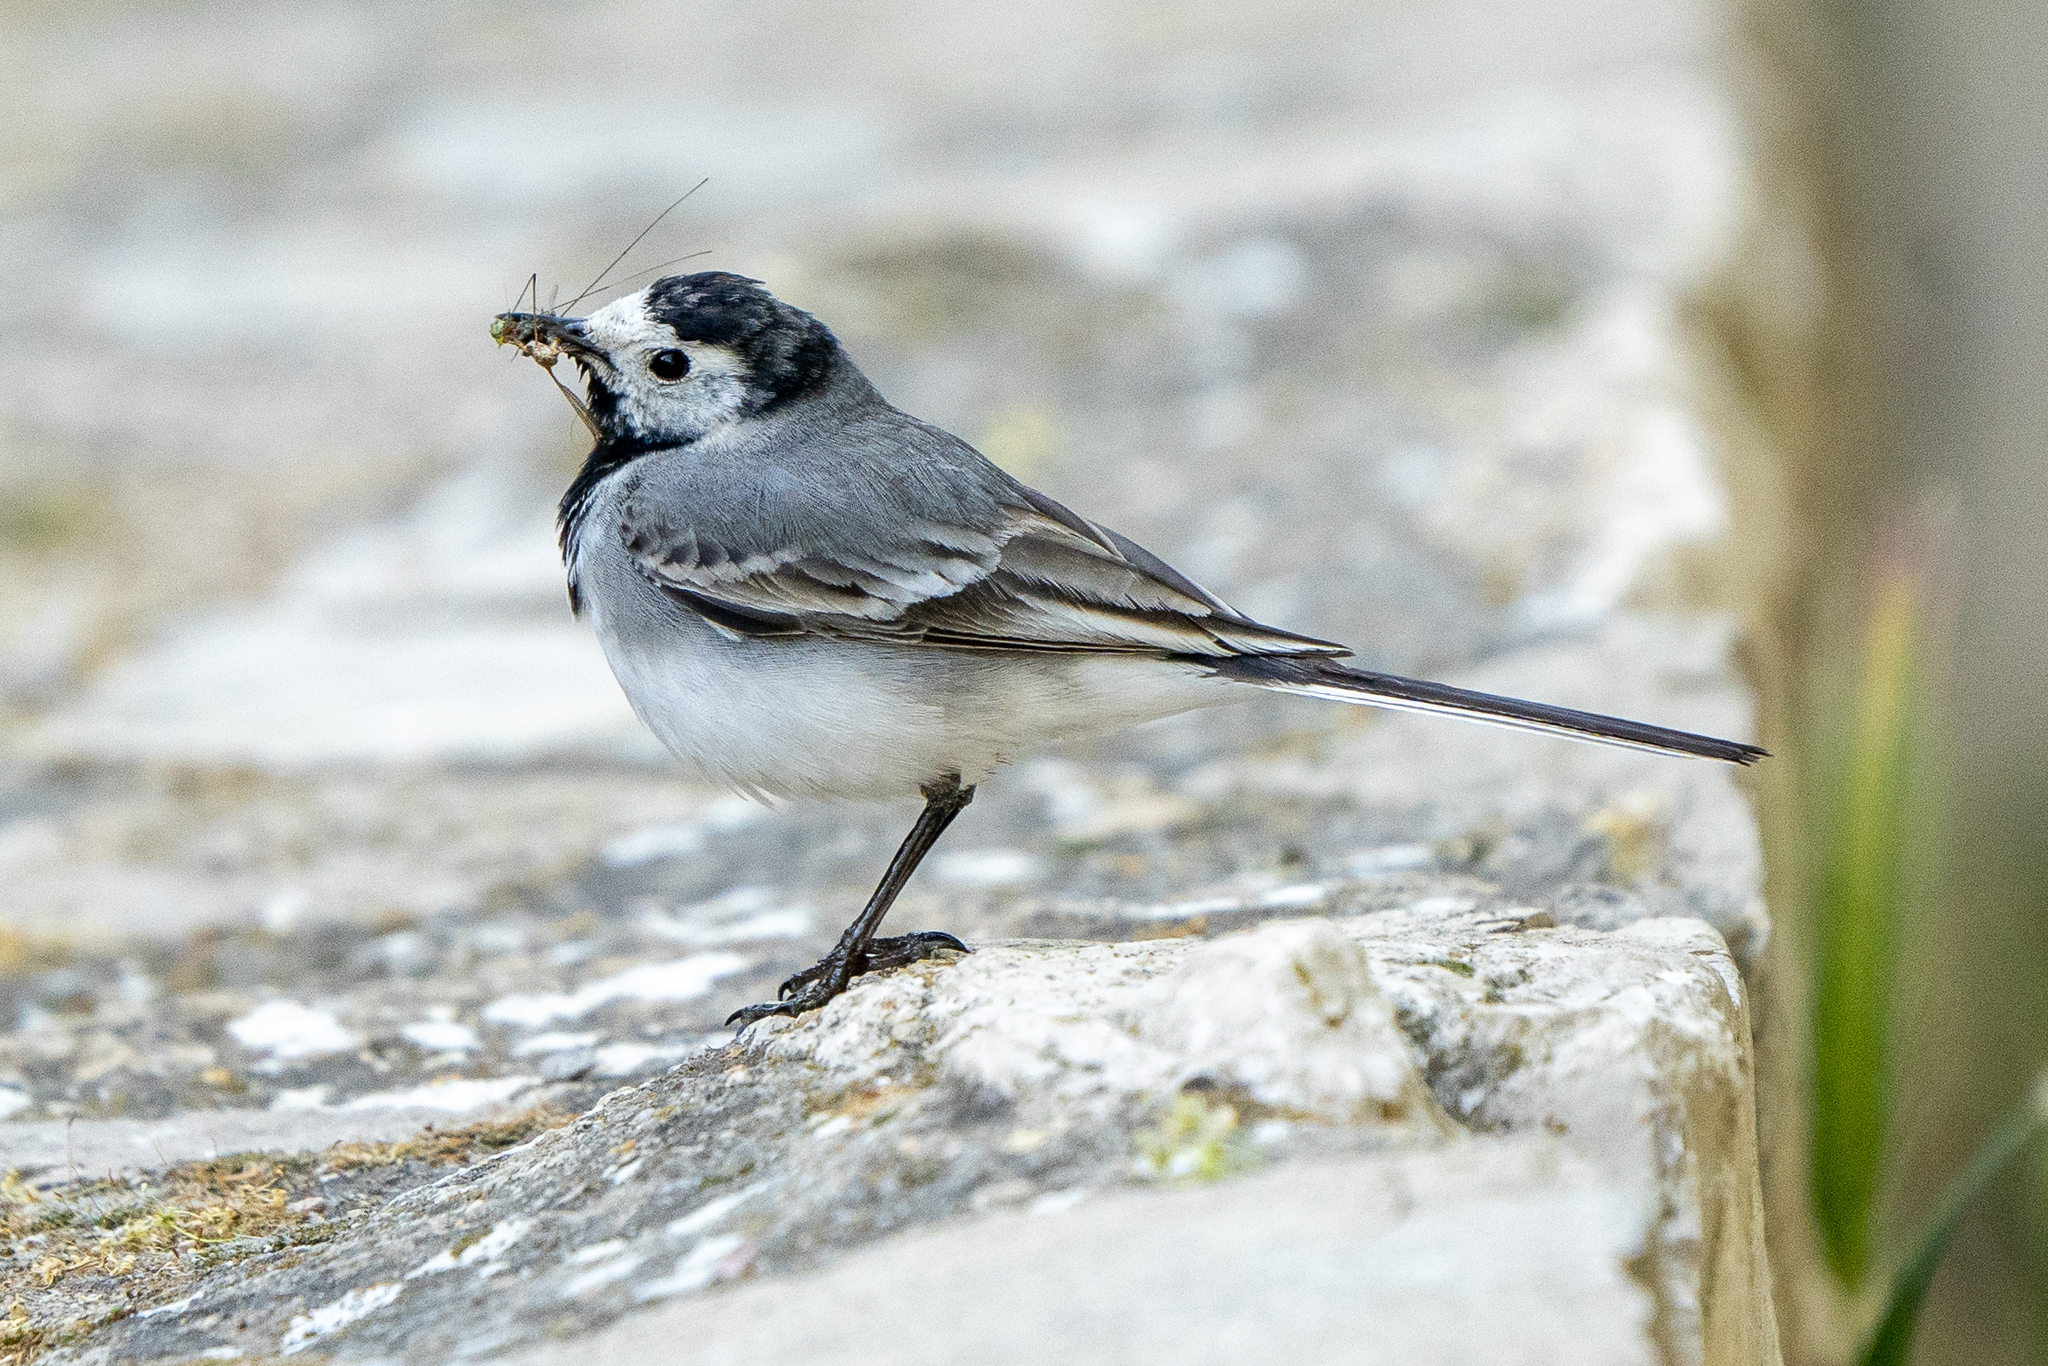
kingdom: Animalia
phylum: Chordata
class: Aves
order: Passeriformes
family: Motacillidae
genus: Motacilla
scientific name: Motacilla alba
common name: White wagtail
